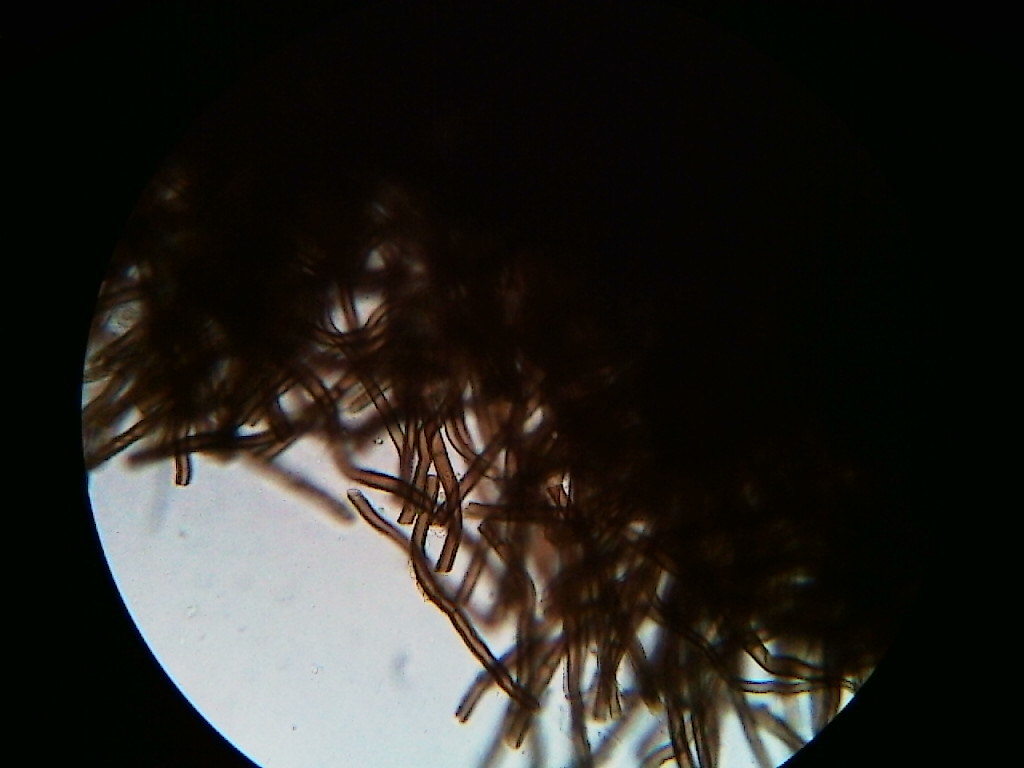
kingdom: Fungi
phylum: Ascomycota
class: Pezizomycetes
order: Pezizales
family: Sarcosomataceae
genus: Pseudoplectania
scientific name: Pseudoplectania nigrella
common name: Ebony cup
